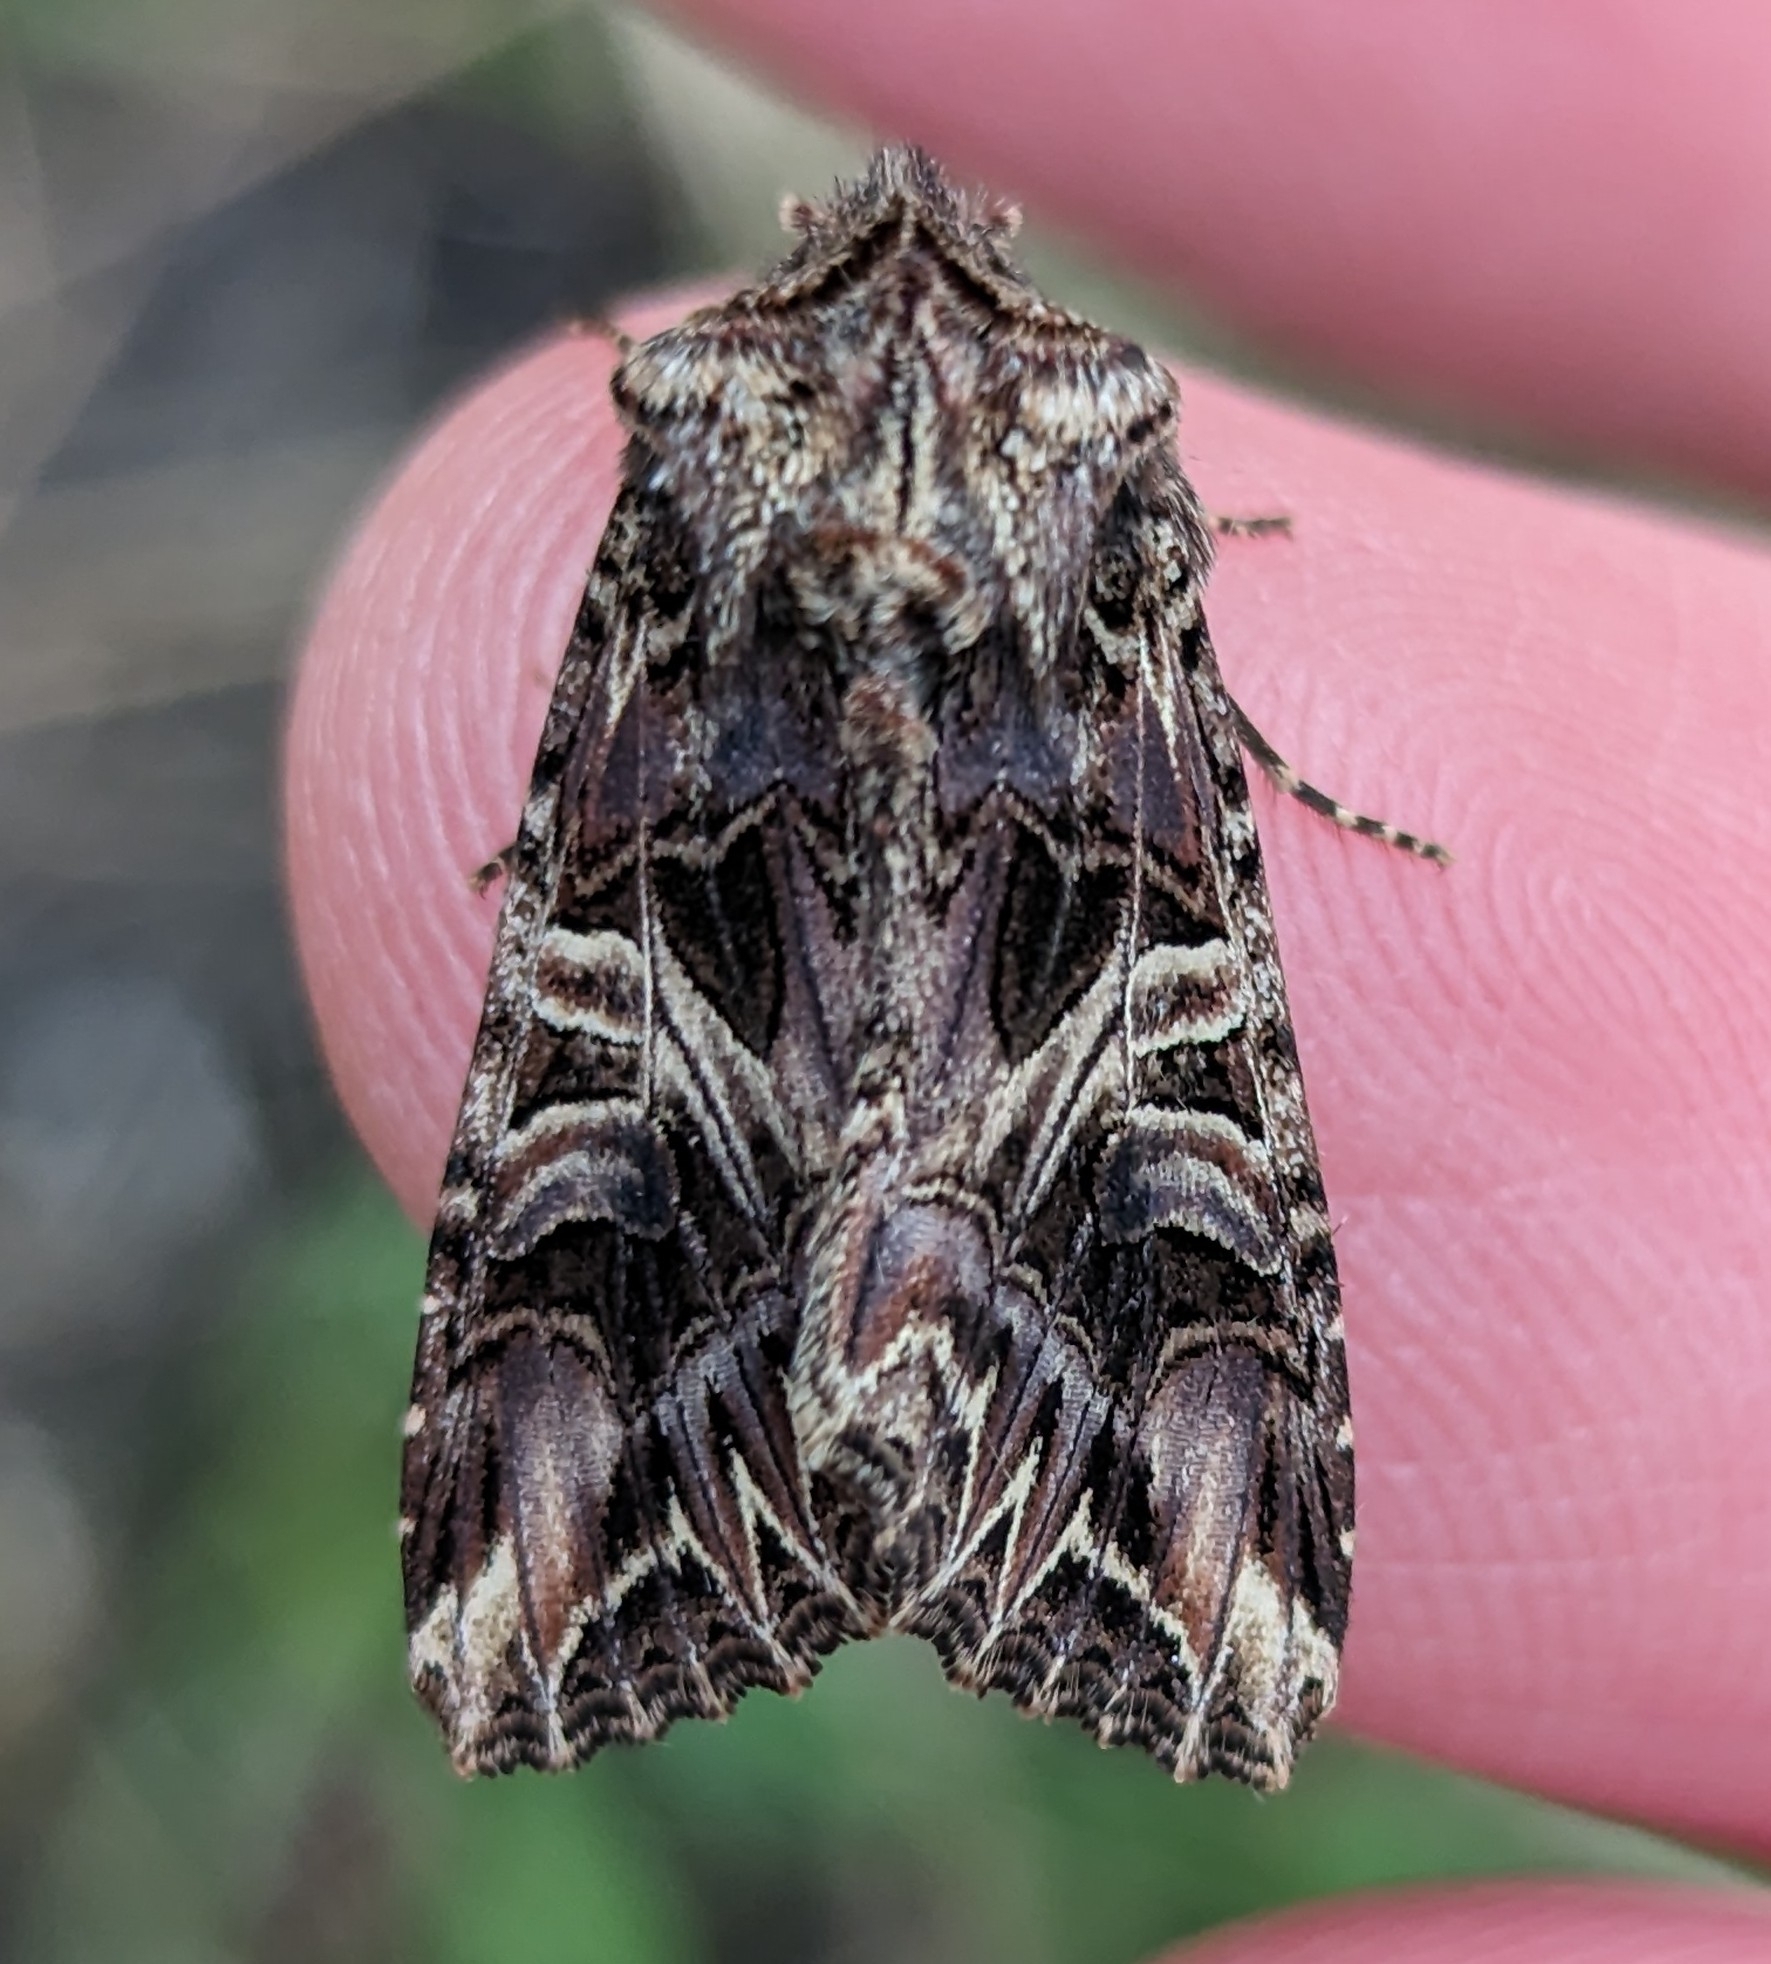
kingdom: Animalia
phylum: Arthropoda
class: Insecta
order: Lepidoptera
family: Noctuidae
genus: Anarta
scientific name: Anarta farnhami
